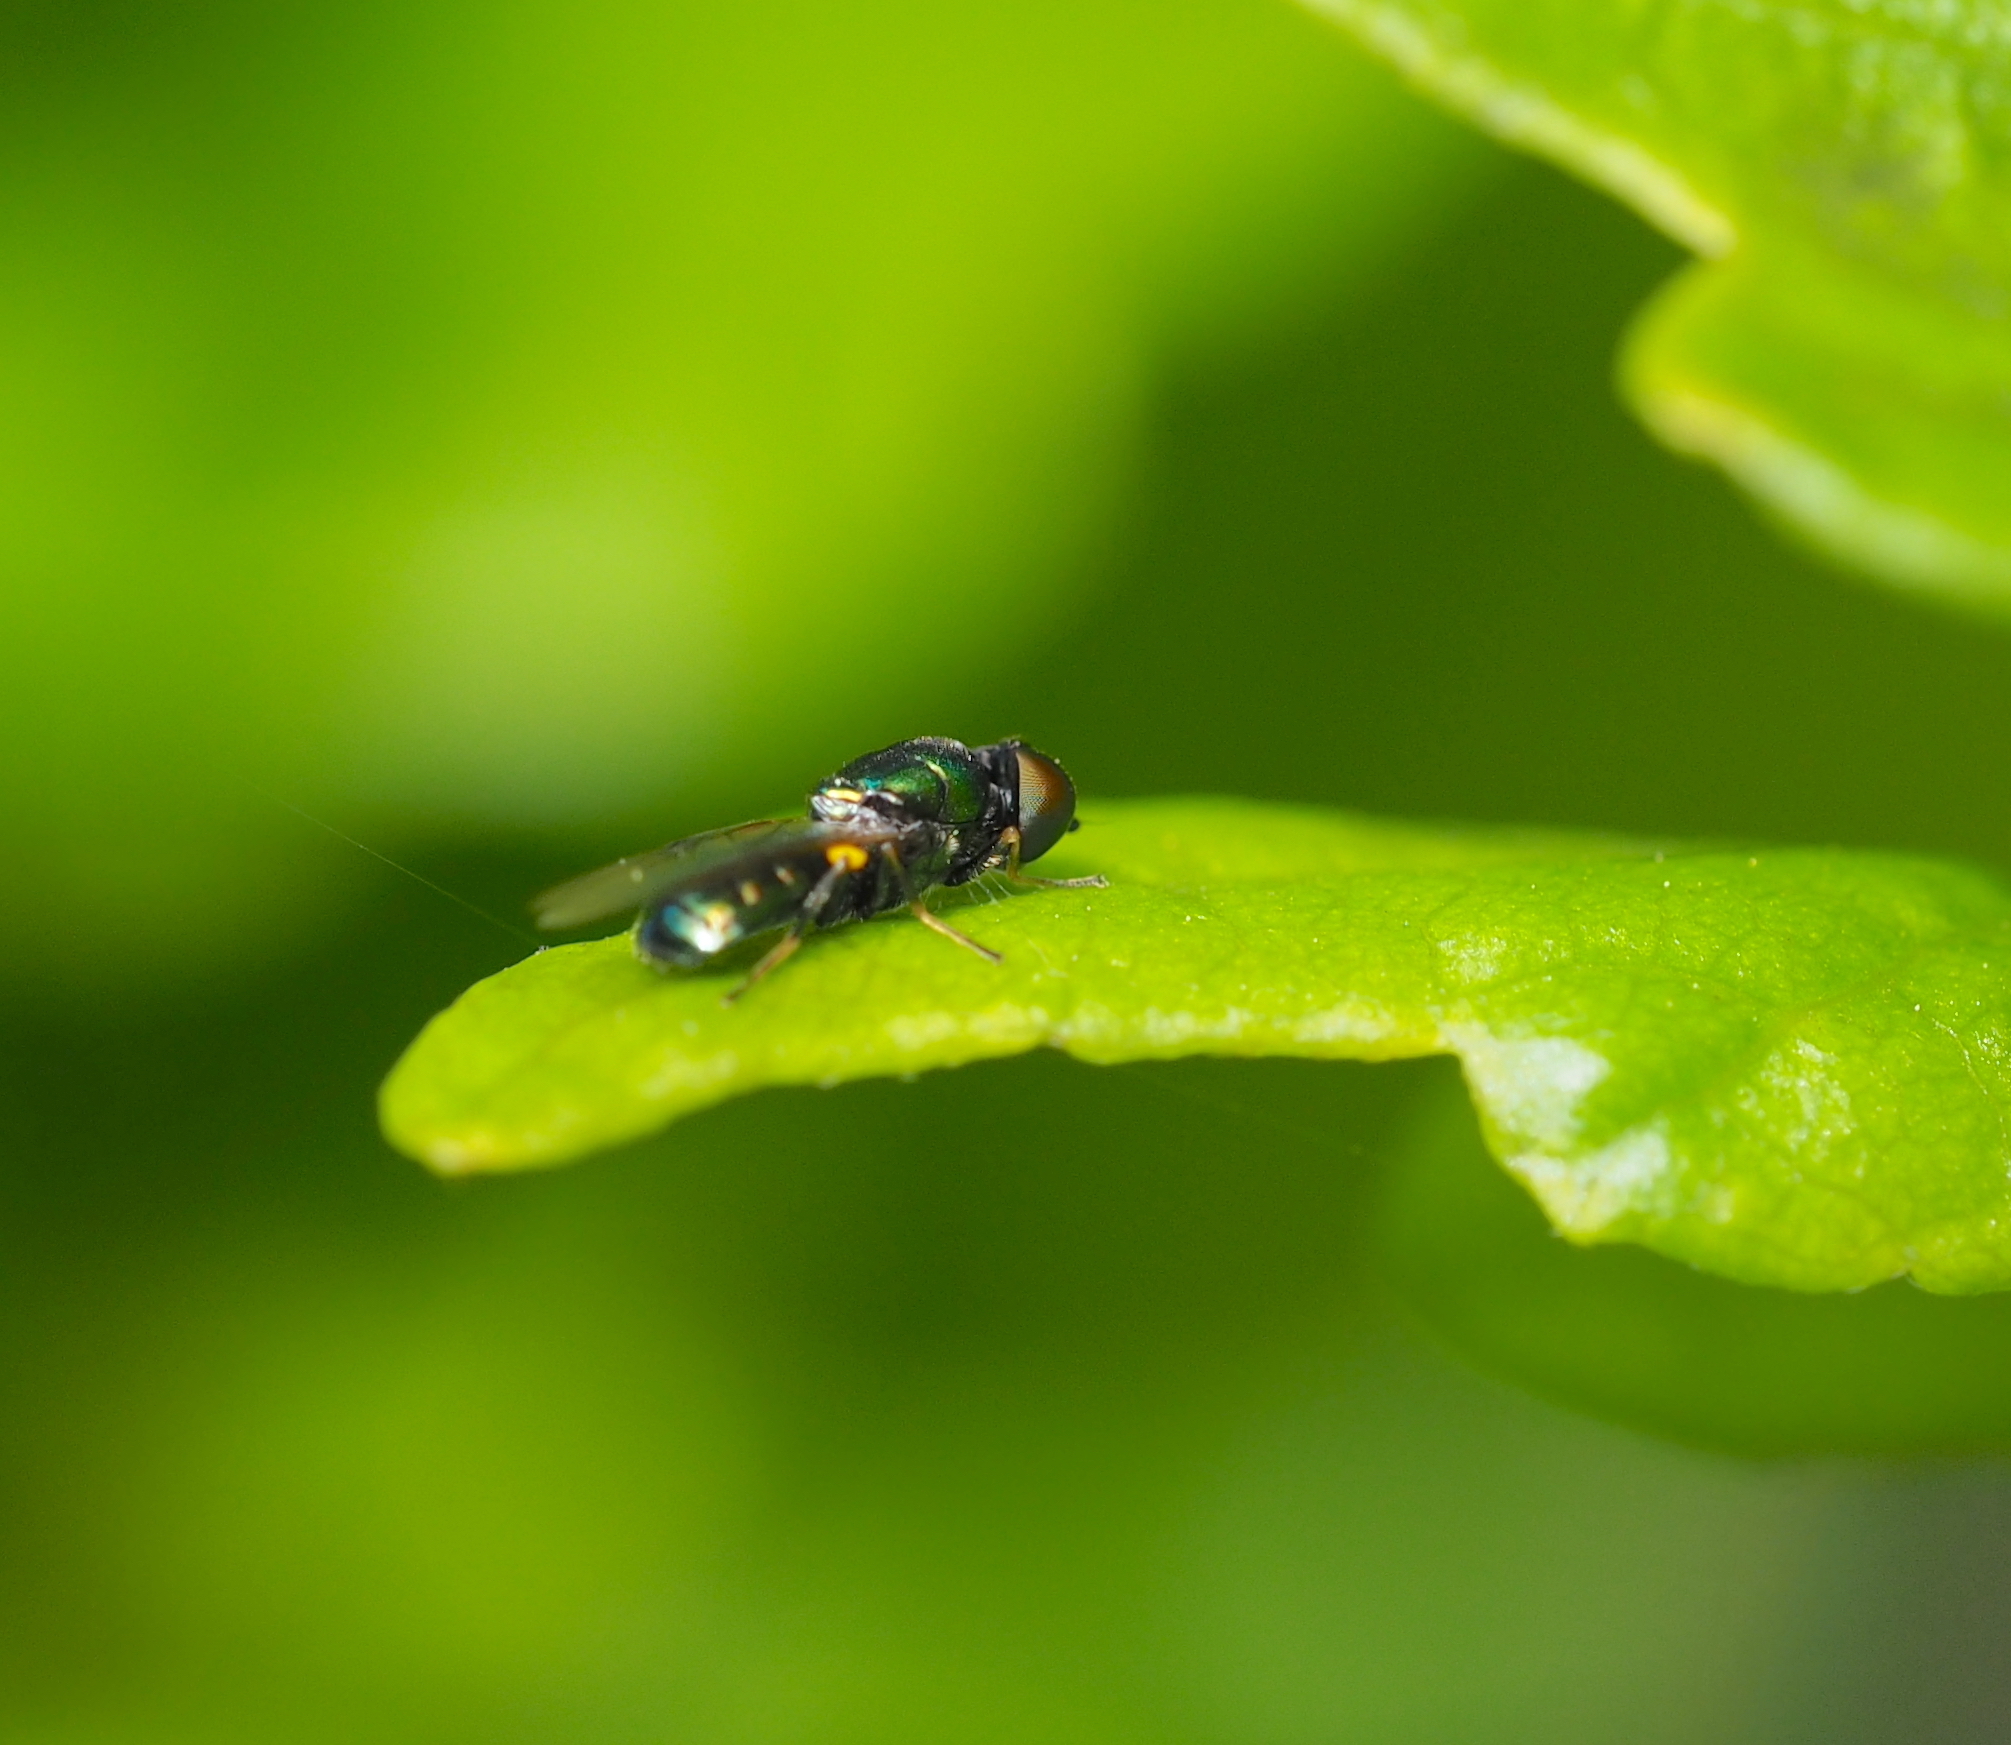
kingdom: Animalia
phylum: Arthropoda
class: Insecta
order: Diptera
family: Stratiomyidae
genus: Microchrysa
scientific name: Microchrysa polita
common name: Black-horned gem
